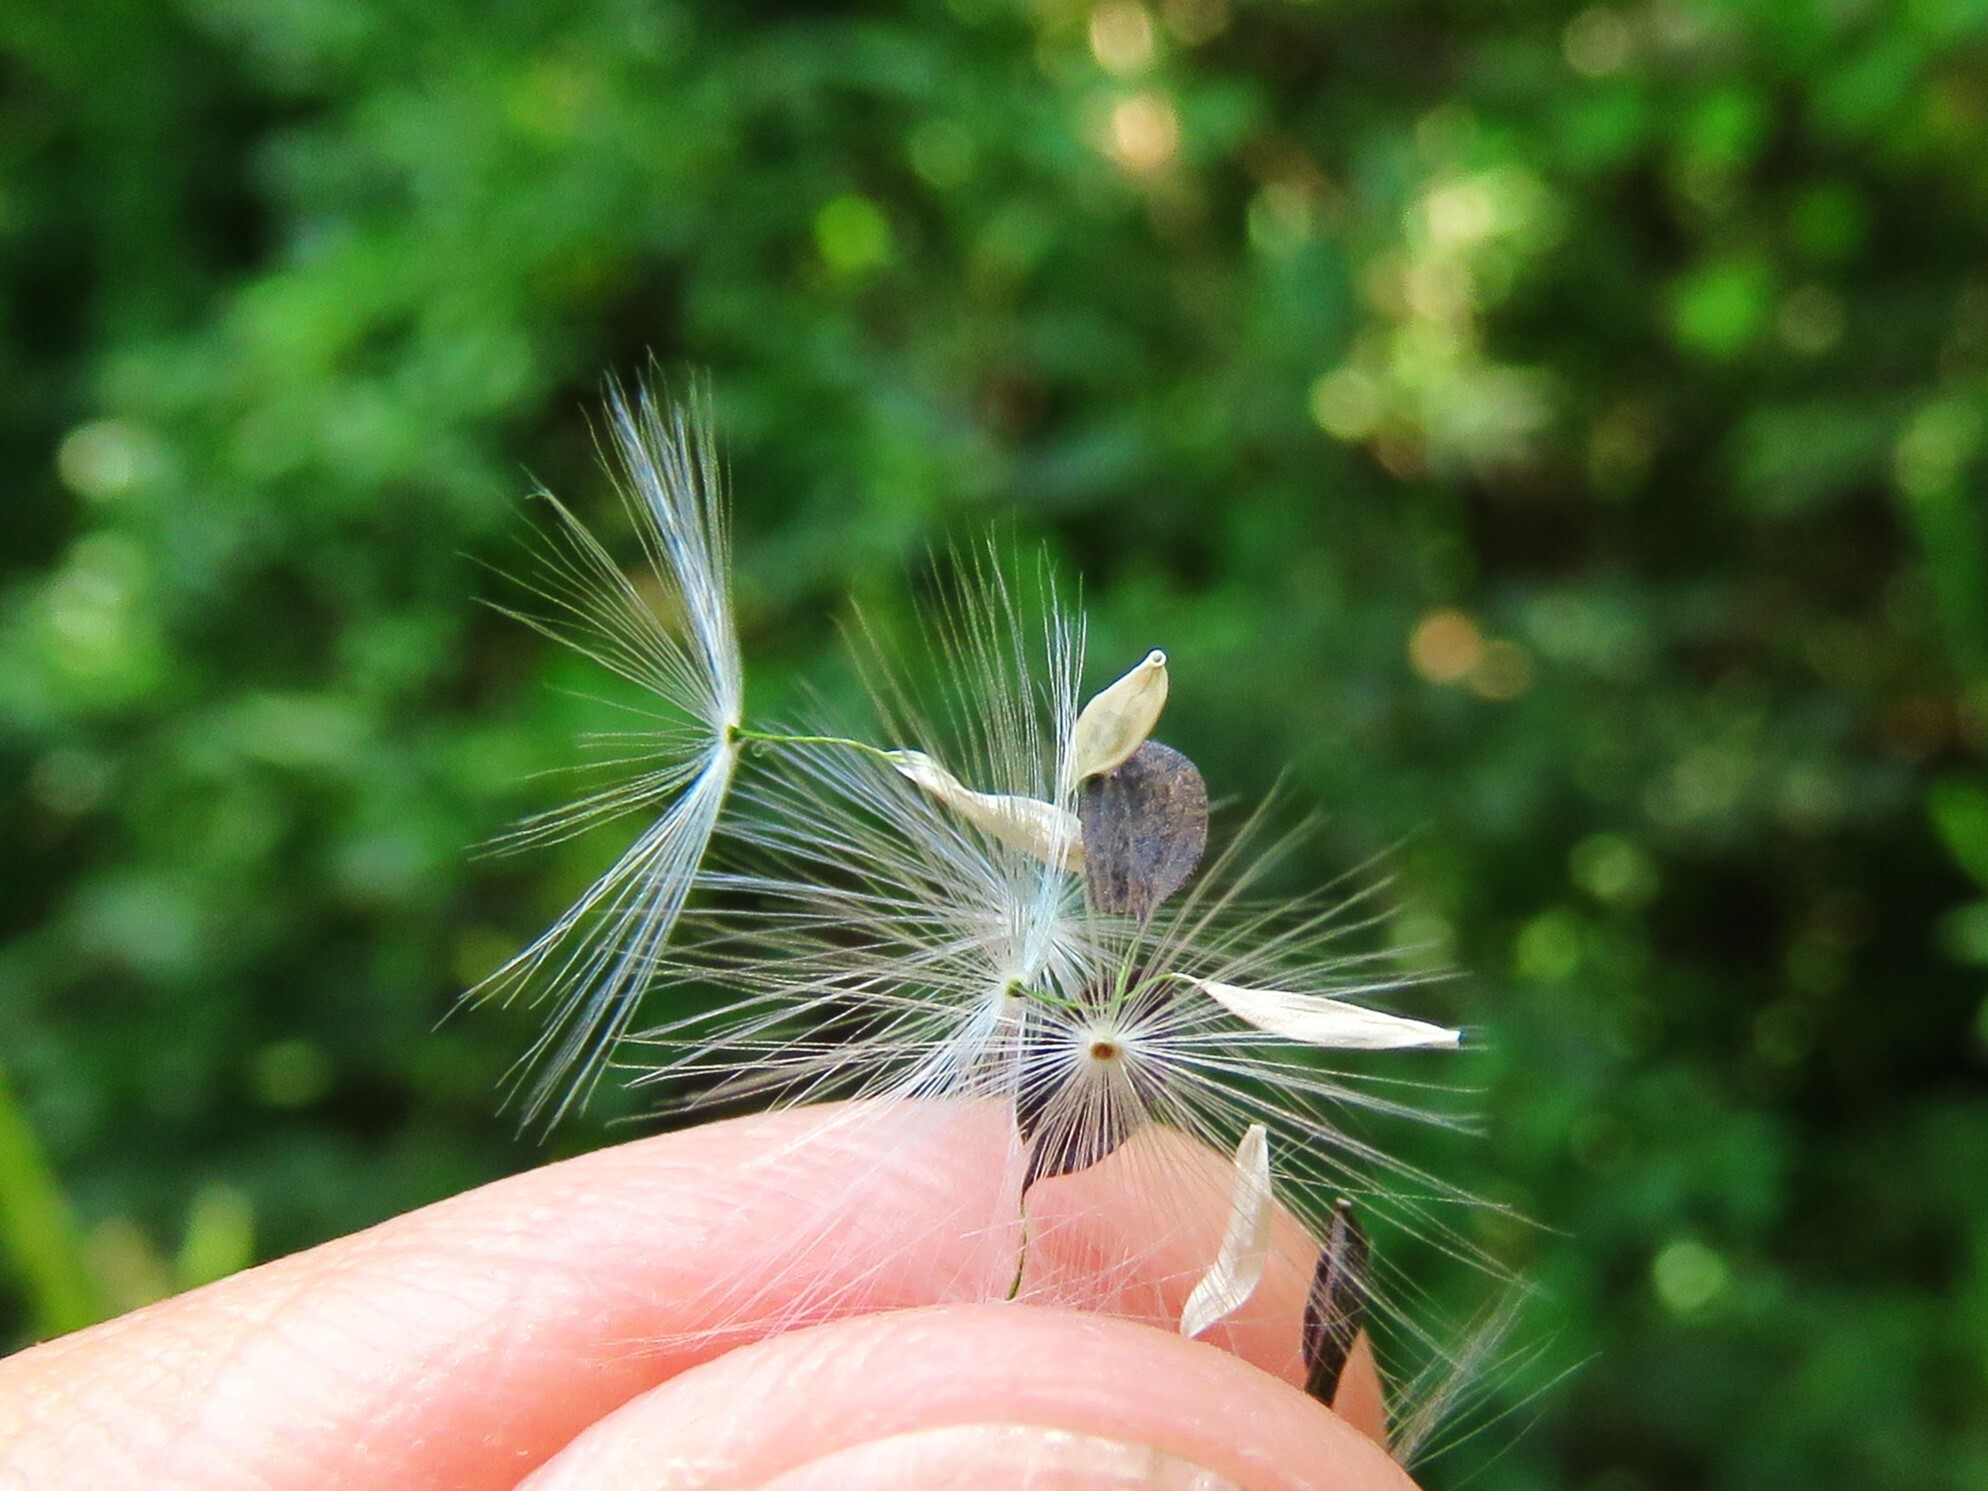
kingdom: Plantae
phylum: Tracheophyta
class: Magnoliopsida
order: Asterales
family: Asteraceae
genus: Lactuca
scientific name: Lactuca canadensis
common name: Canada lettuce
